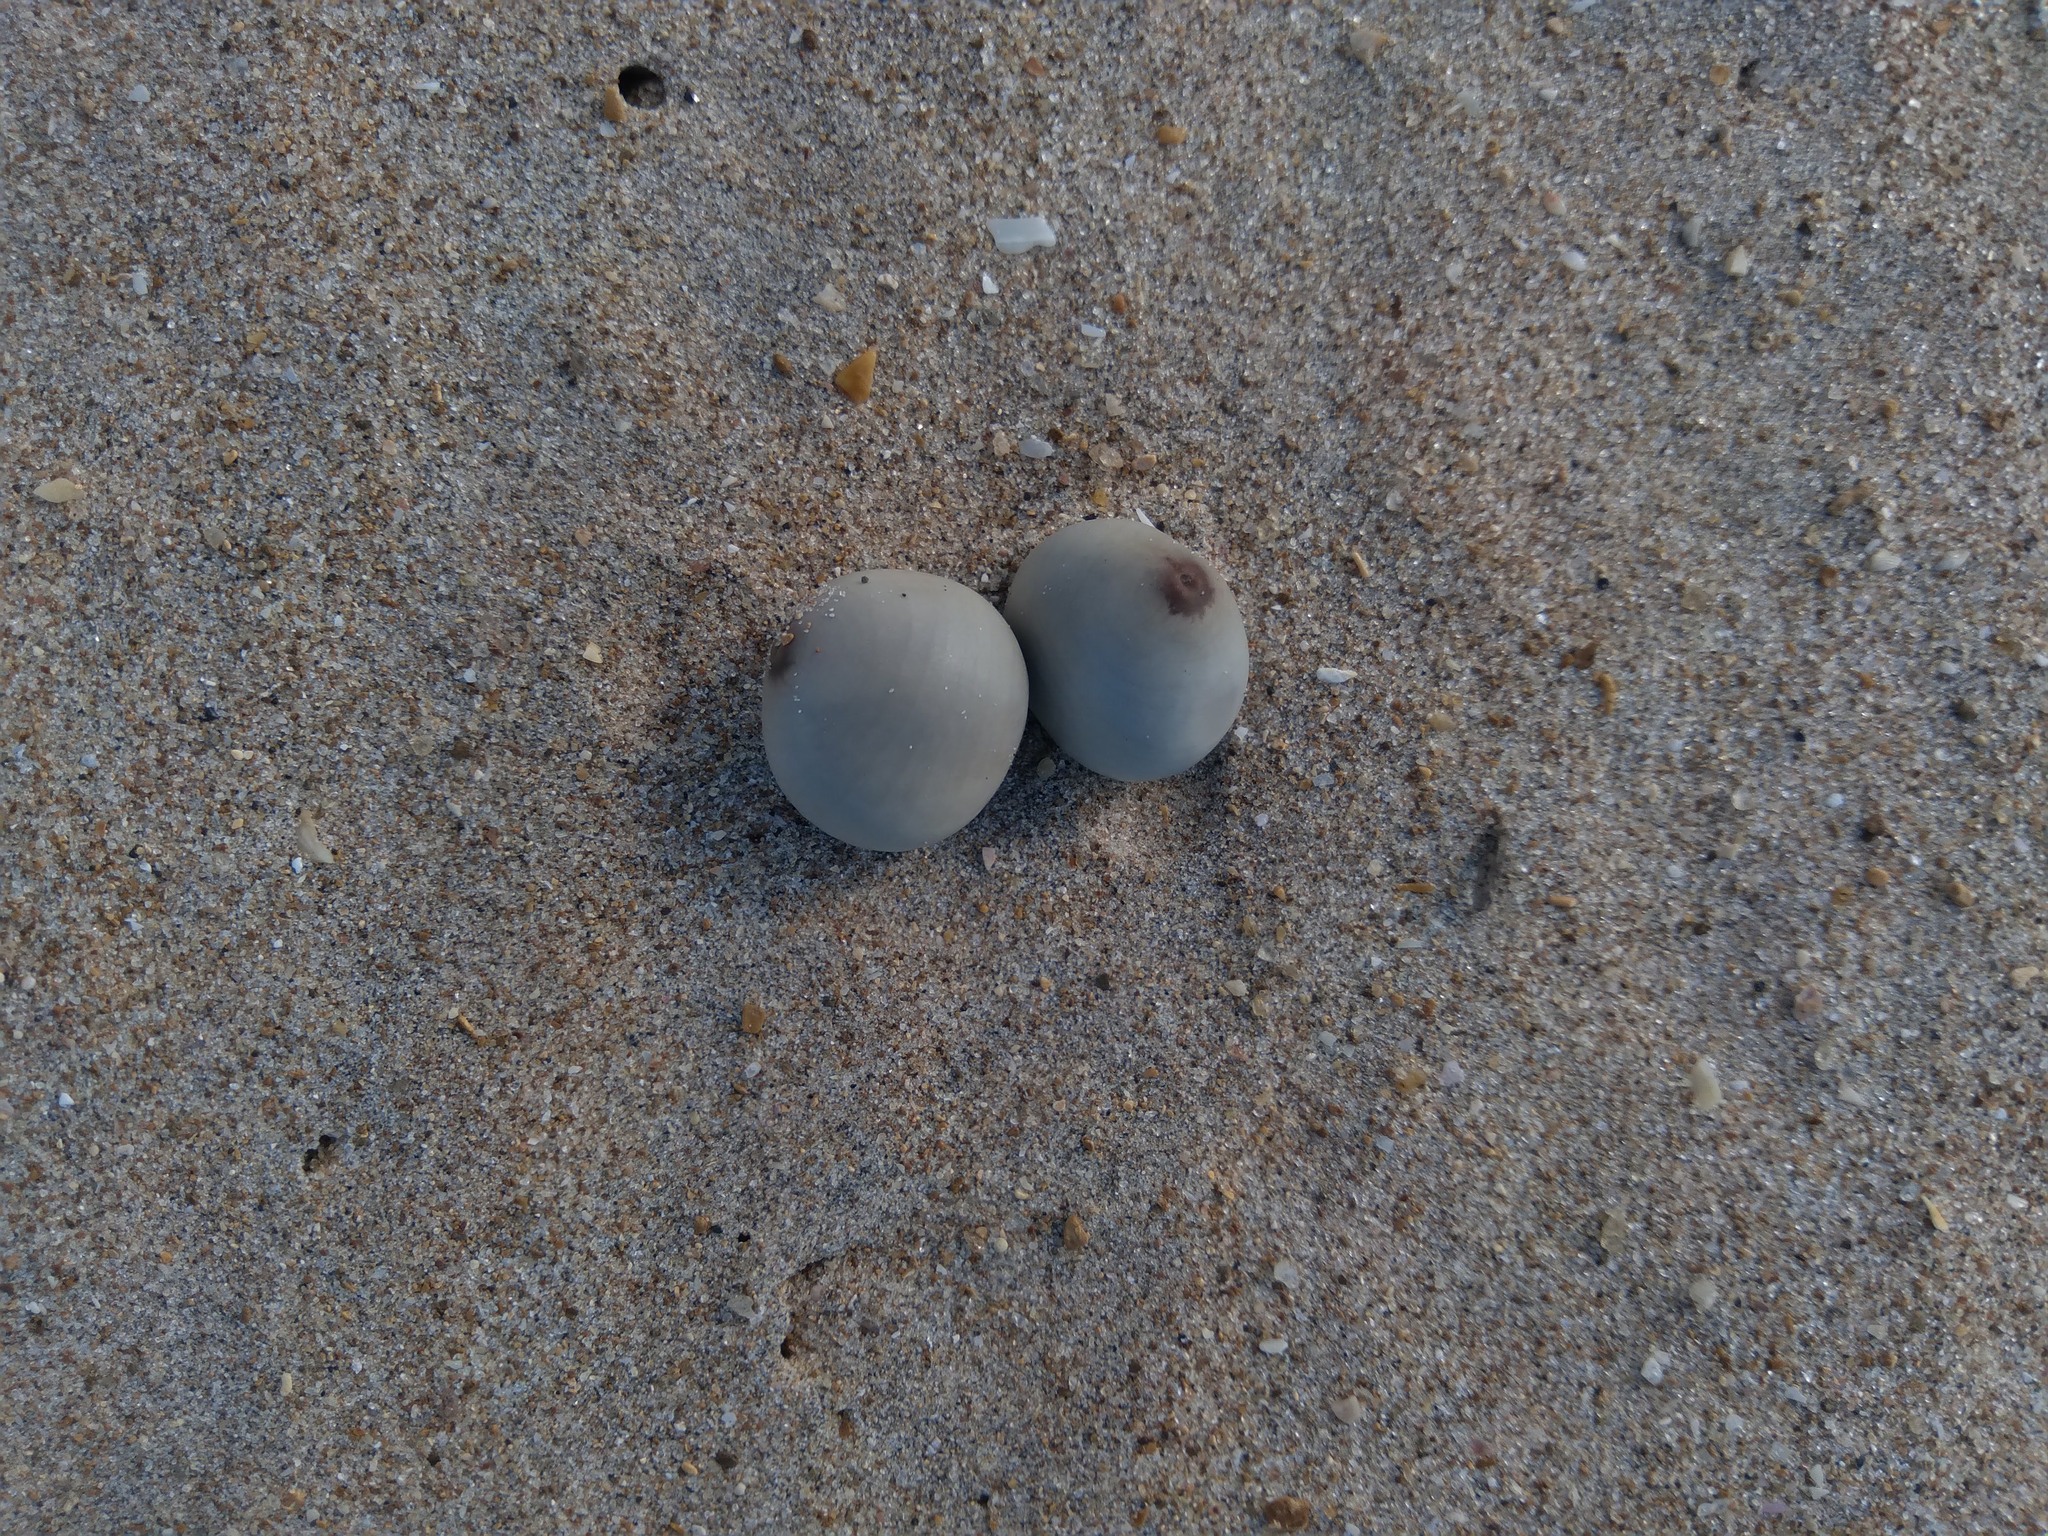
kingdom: Plantae
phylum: Tracheophyta
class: Magnoliopsida
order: Fabales
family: Fabaceae
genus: Guilandina
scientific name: Guilandina bonduc
